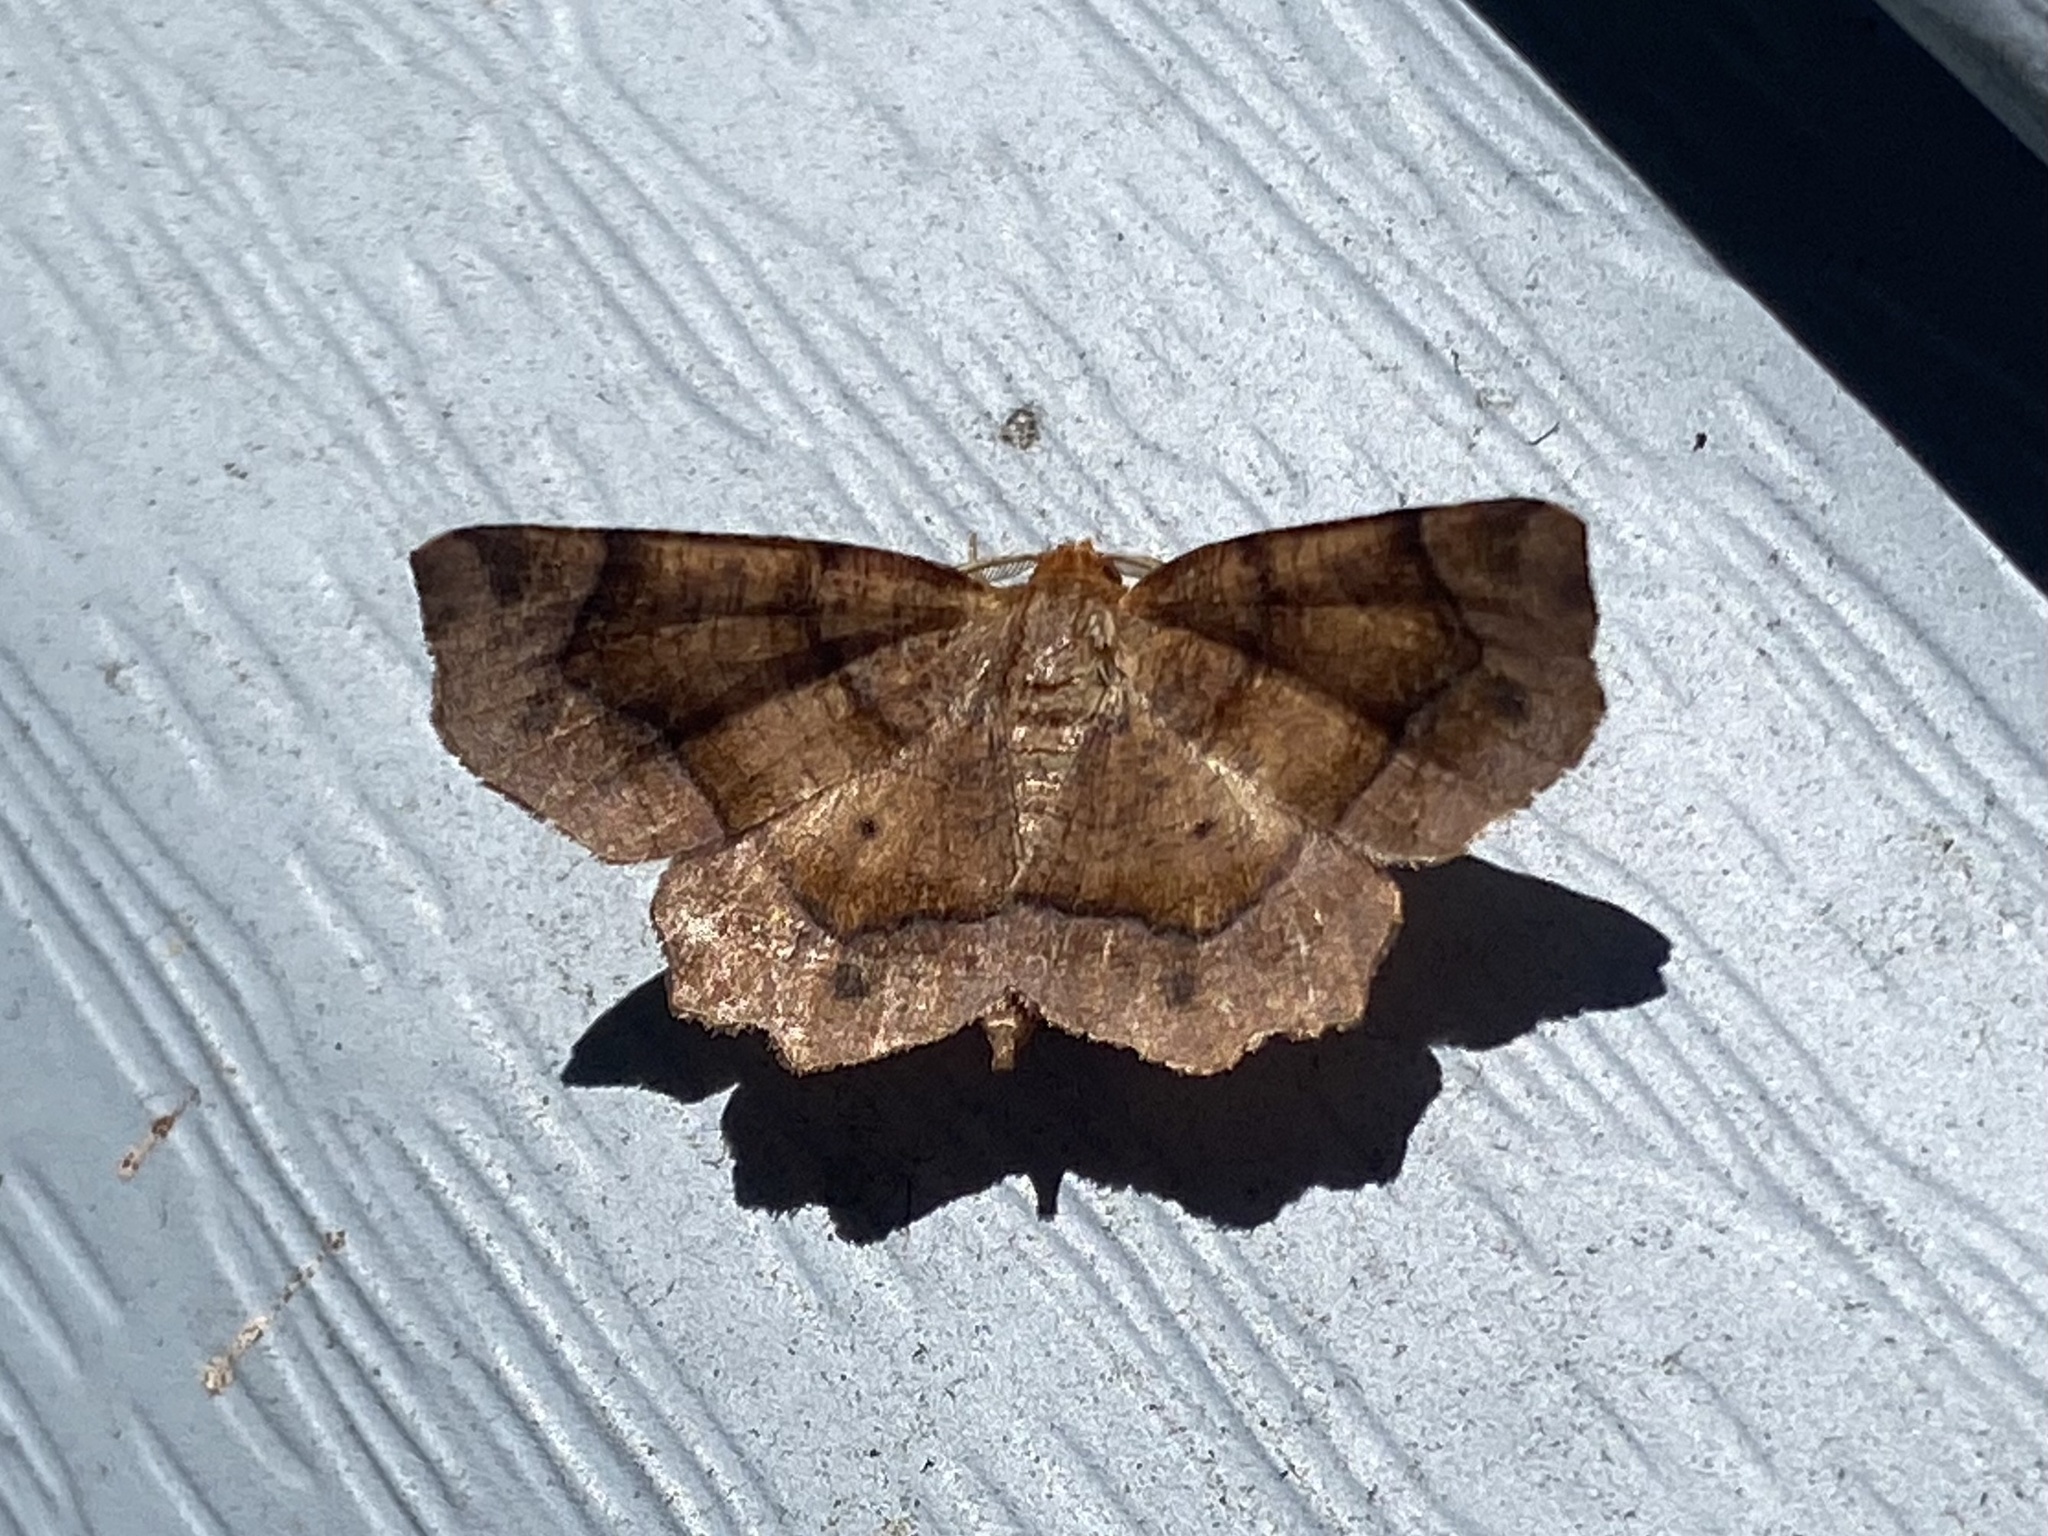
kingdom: Animalia
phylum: Arthropoda
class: Insecta
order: Lepidoptera
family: Geometridae
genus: Metarranthis
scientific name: Metarranthis homuraria
